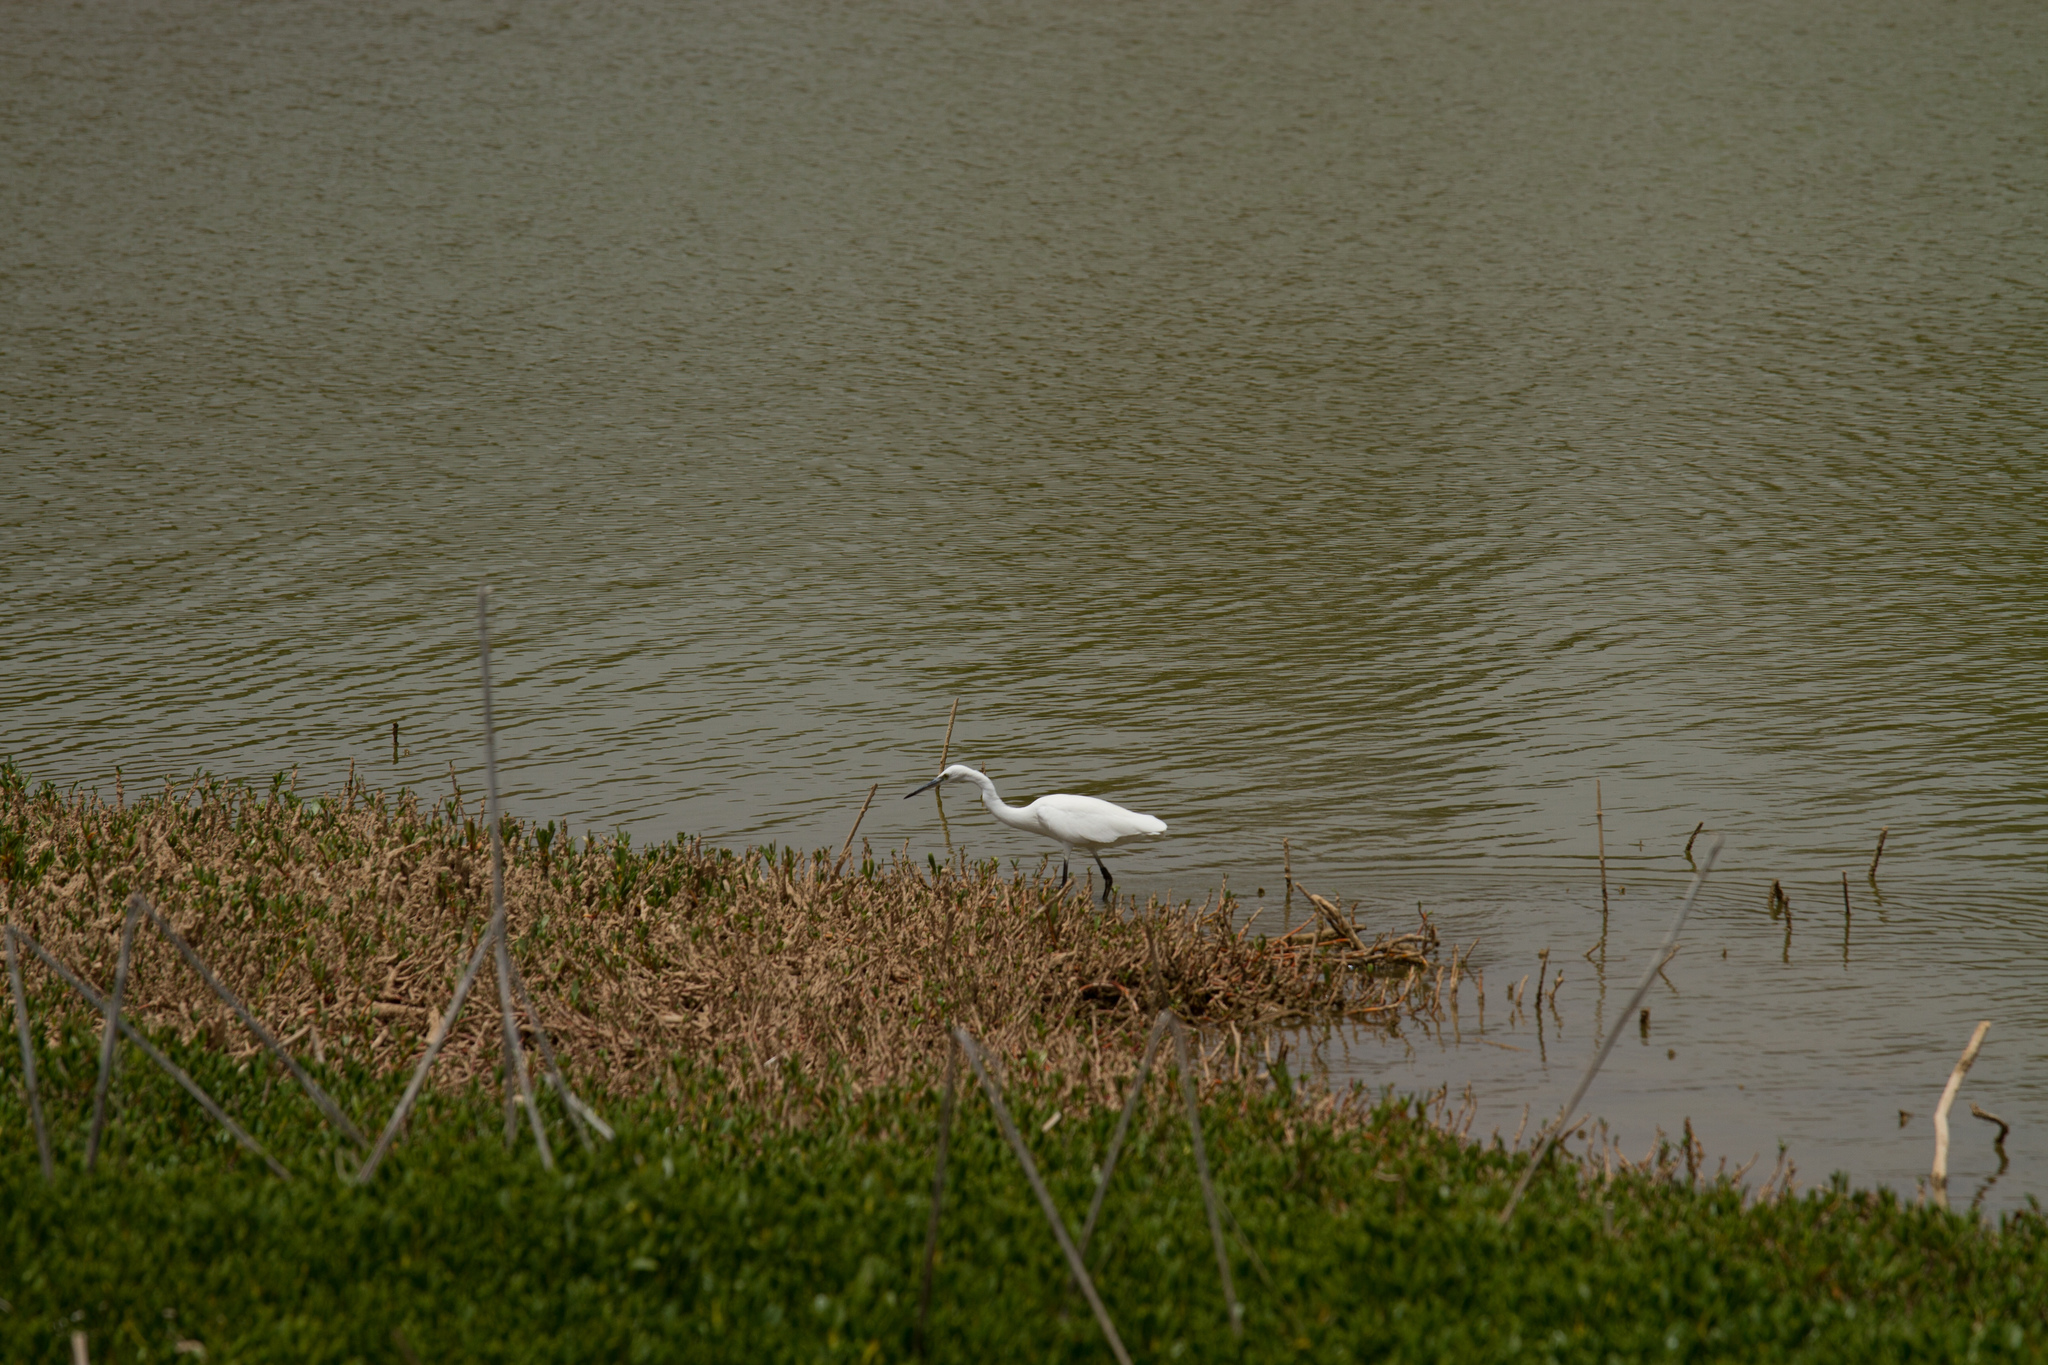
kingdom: Animalia
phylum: Chordata
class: Aves
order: Pelecaniformes
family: Ardeidae
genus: Egretta
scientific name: Egretta garzetta
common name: Little egret
